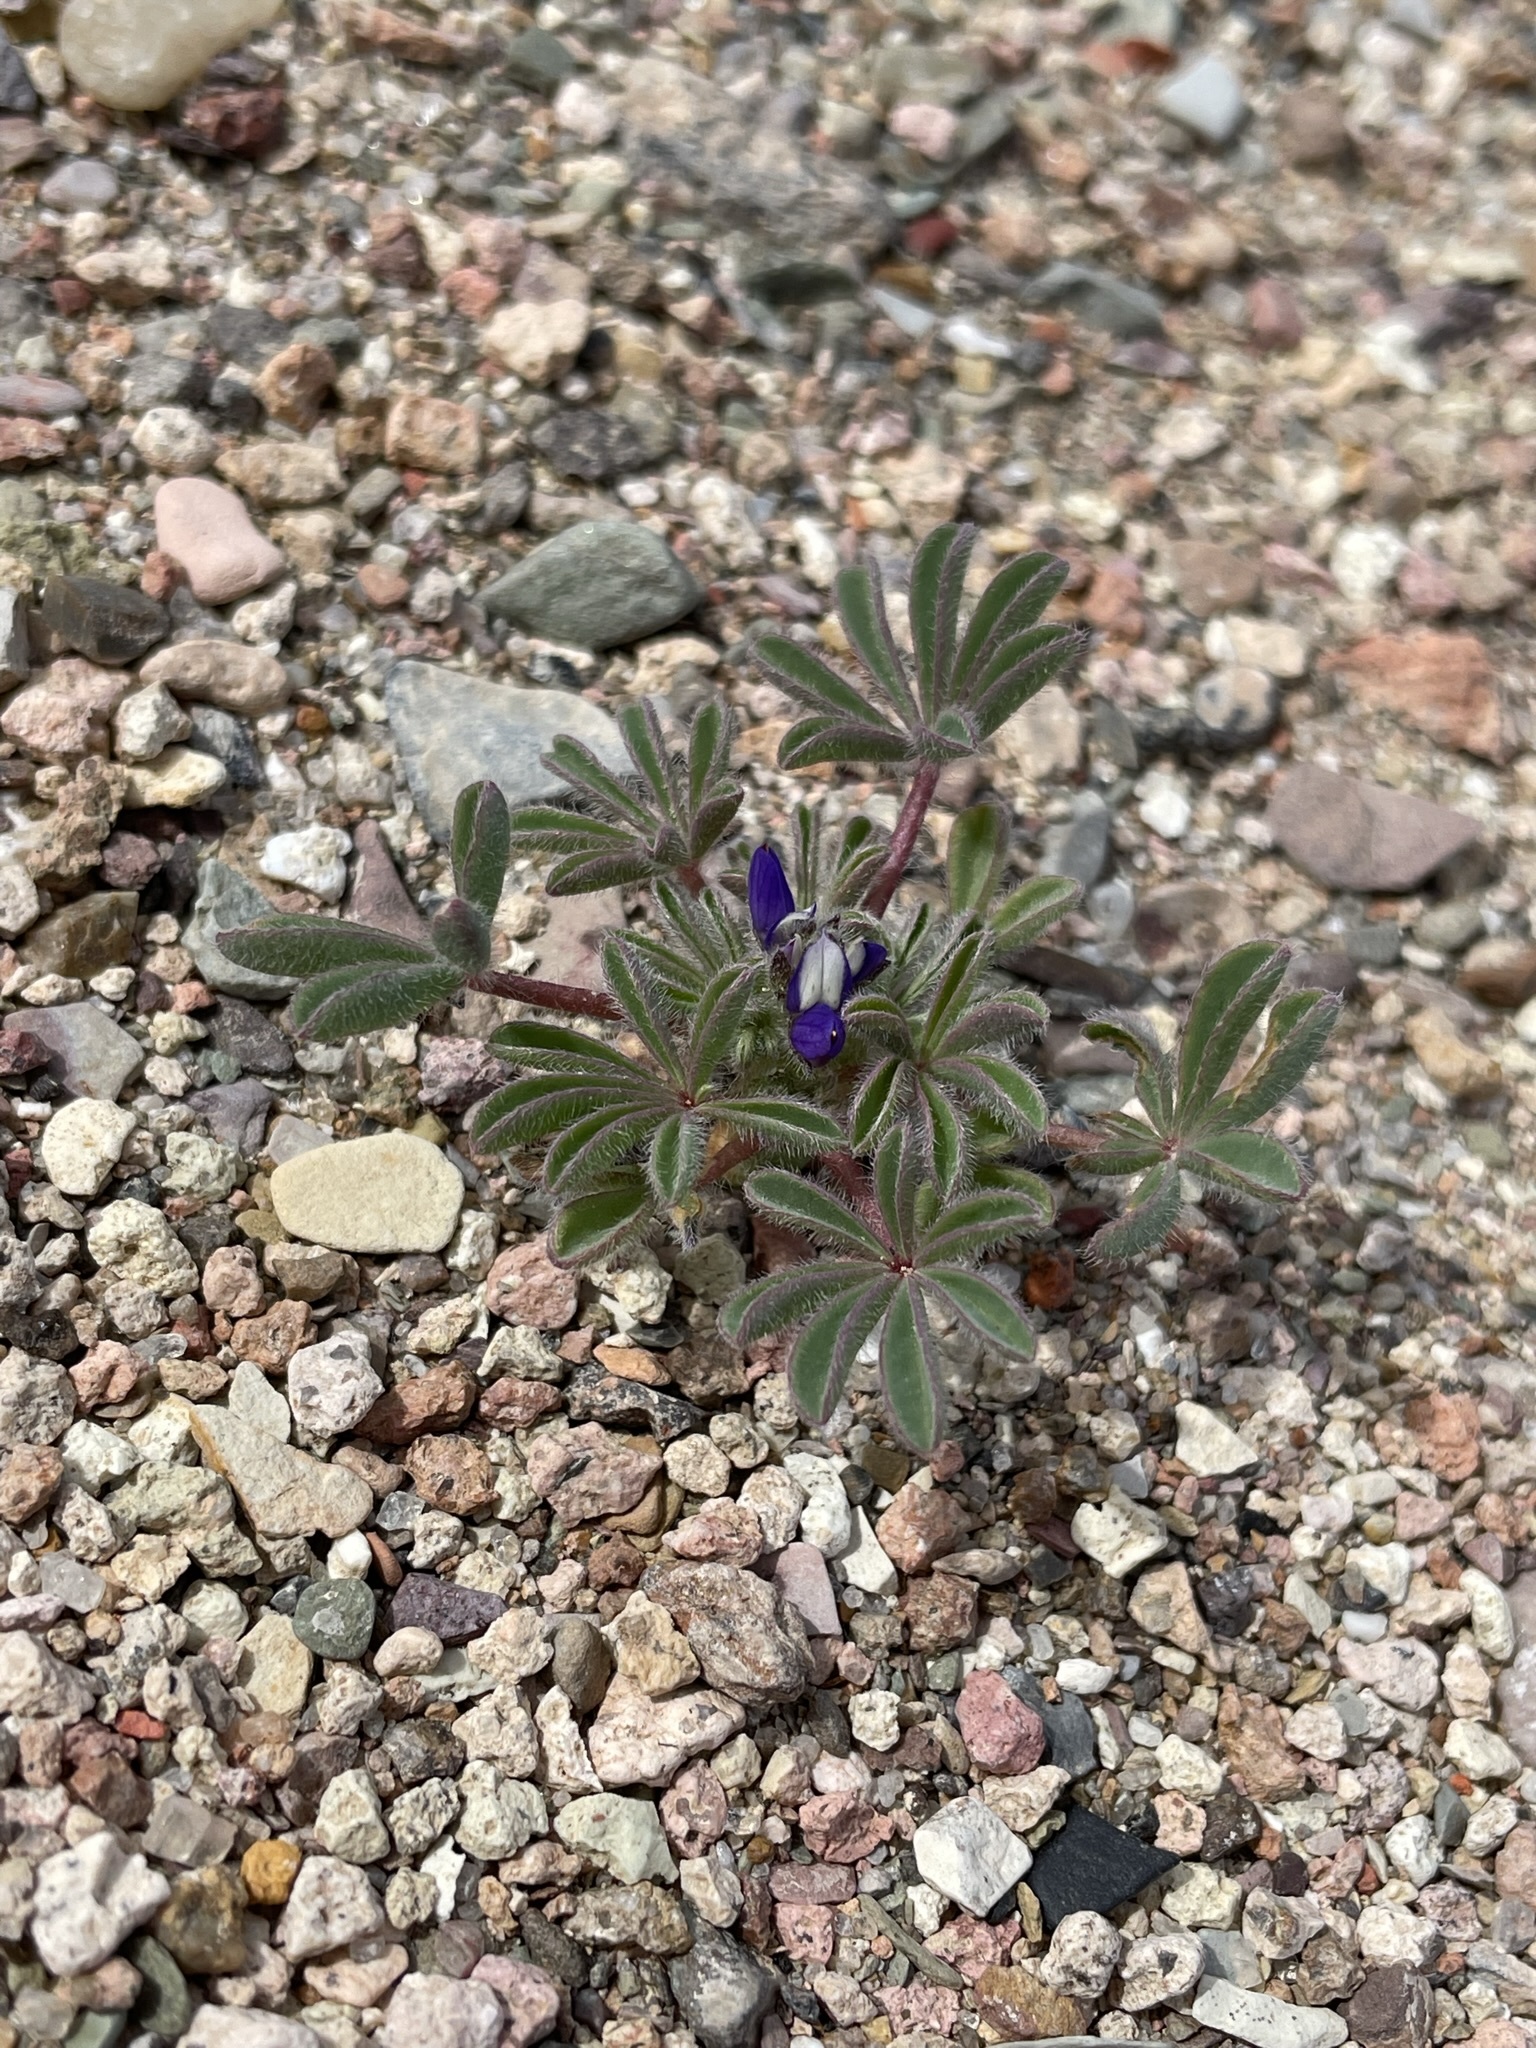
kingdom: Plantae
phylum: Tracheophyta
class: Magnoliopsida
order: Fabales
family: Fabaceae
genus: Lupinus
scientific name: Lupinus brevicaulis
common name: Sand lupine
